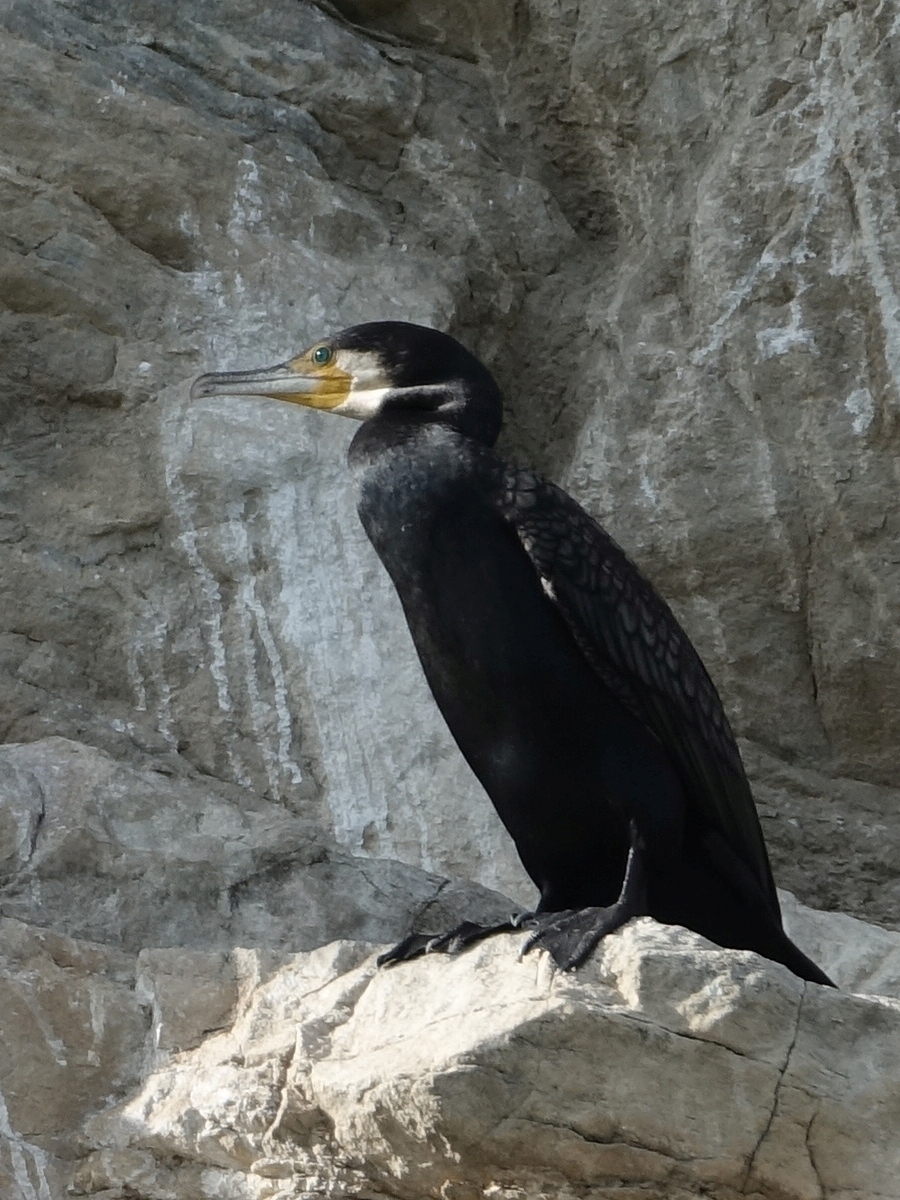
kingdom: Animalia
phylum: Chordata
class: Aves
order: Suliformes
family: Phalacrocoracidae
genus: Phalacrocorax
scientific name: Phalacrocorax carbo
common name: Great cormorant
